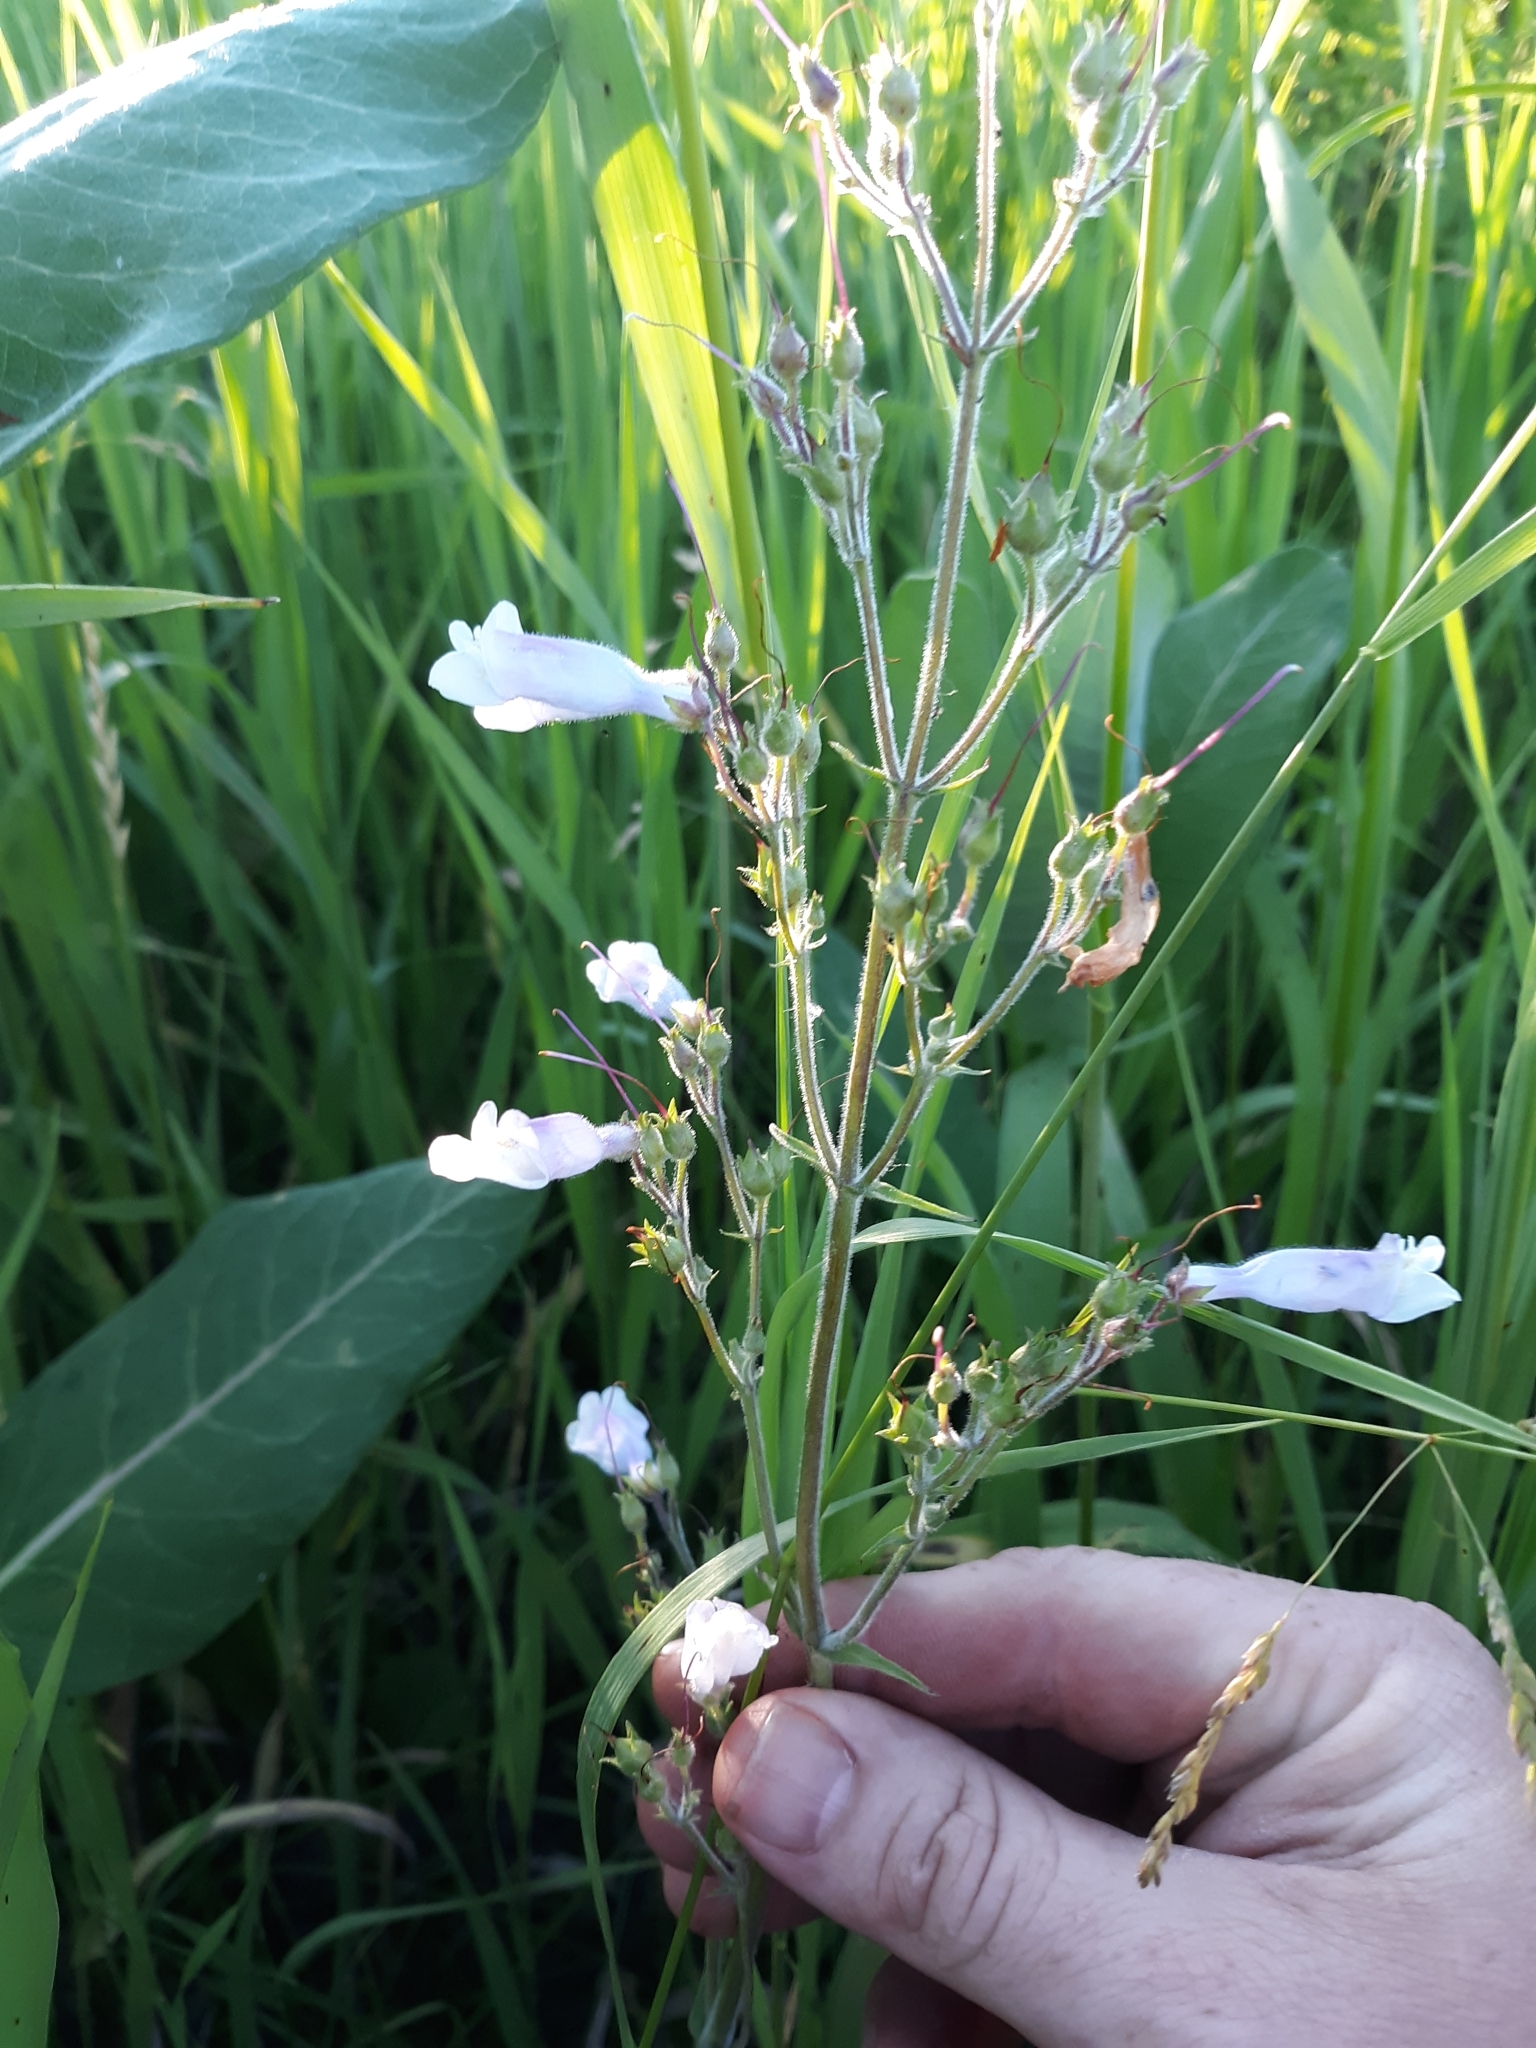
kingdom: Plantae
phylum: Tracheophyta
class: Magnoliopsida
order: Lamiales
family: Plantaginaceae
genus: Penstemon
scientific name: Penstemon hirsutus
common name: Hairy beardtongue
